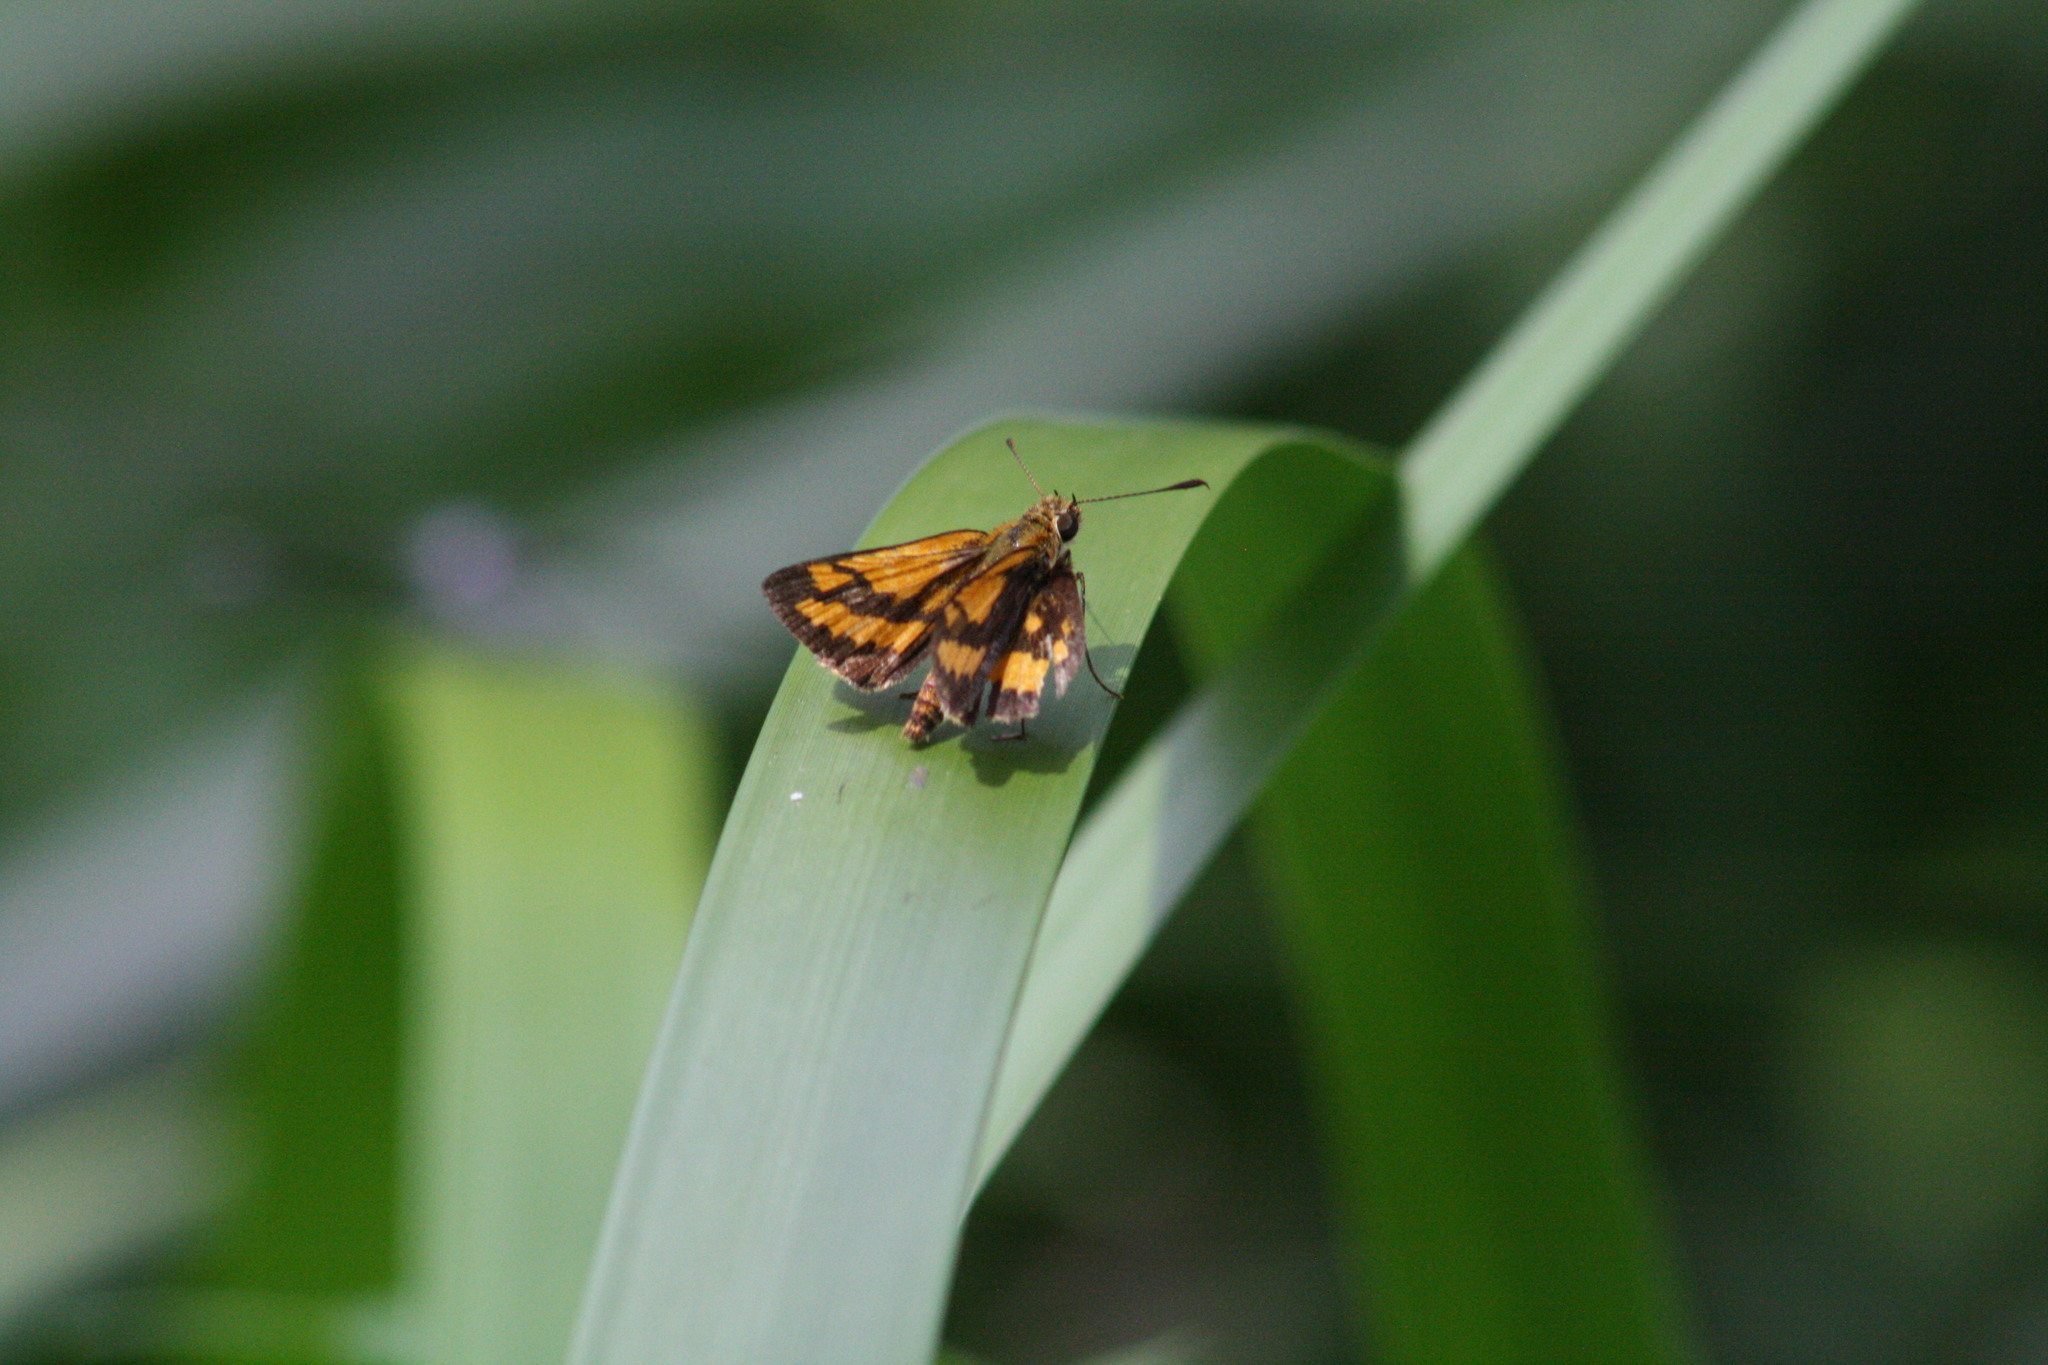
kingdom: Animalia
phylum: Arthropoda
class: Insecta
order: Lepidoptera
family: Hesperiidae
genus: Suniana
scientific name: Suniana sunias
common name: Wide-brand grass-dart
